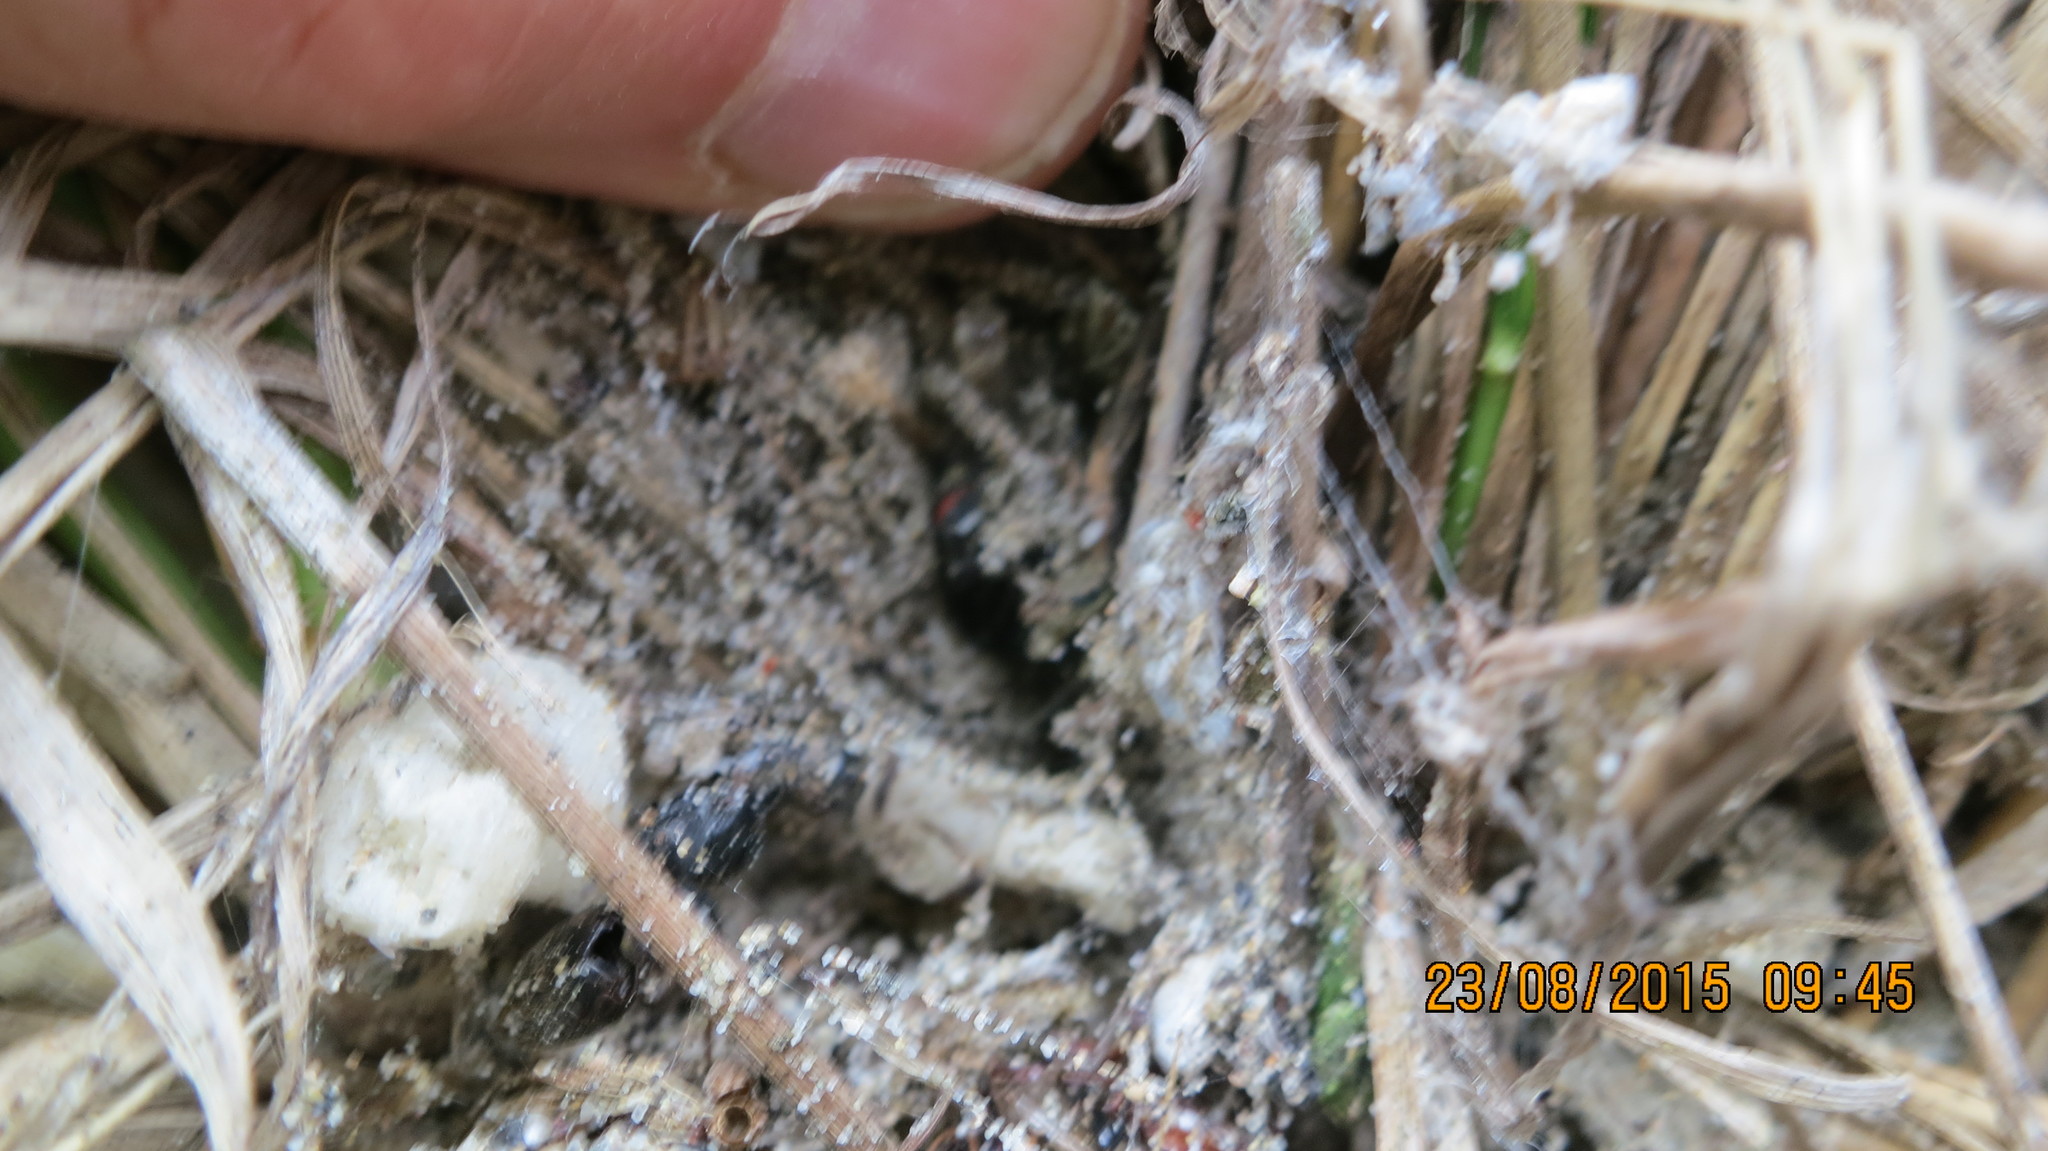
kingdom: Animalia
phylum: Arthropoda
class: Arachnida
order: Araneae
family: Theridiidae
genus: Latrodectus
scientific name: Latrodectus katipo
